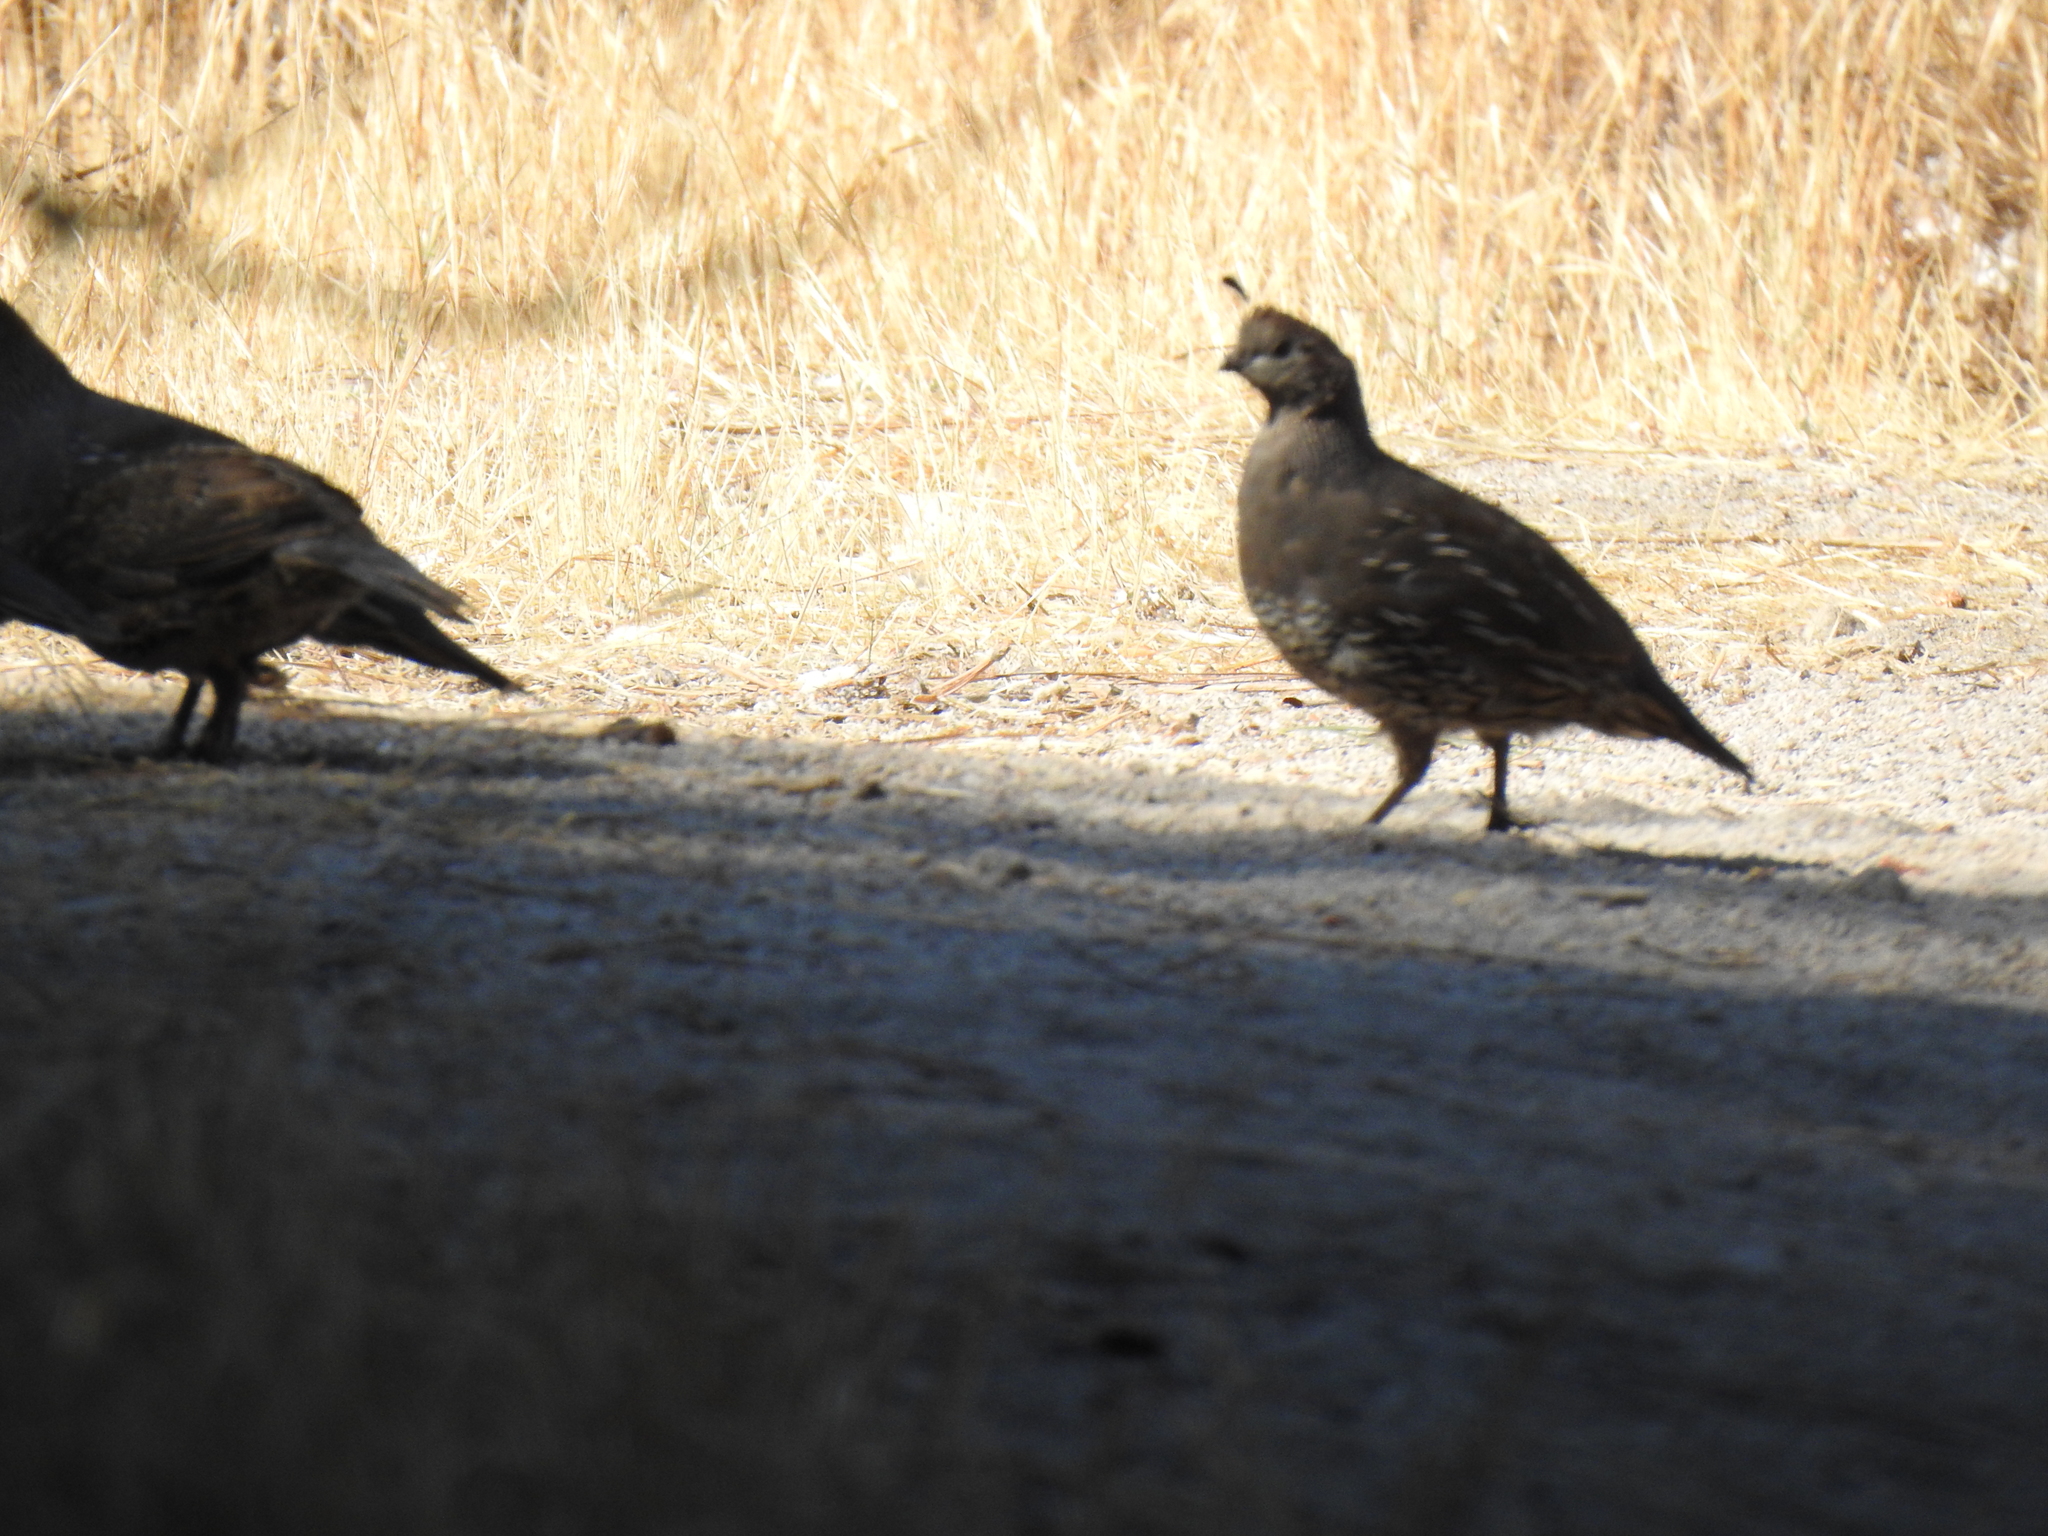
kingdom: Animalia
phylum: Chordata
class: Aves
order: Galliformes
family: Odontophoridae
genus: Callipepla
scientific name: Callipepla californica
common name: California quail
